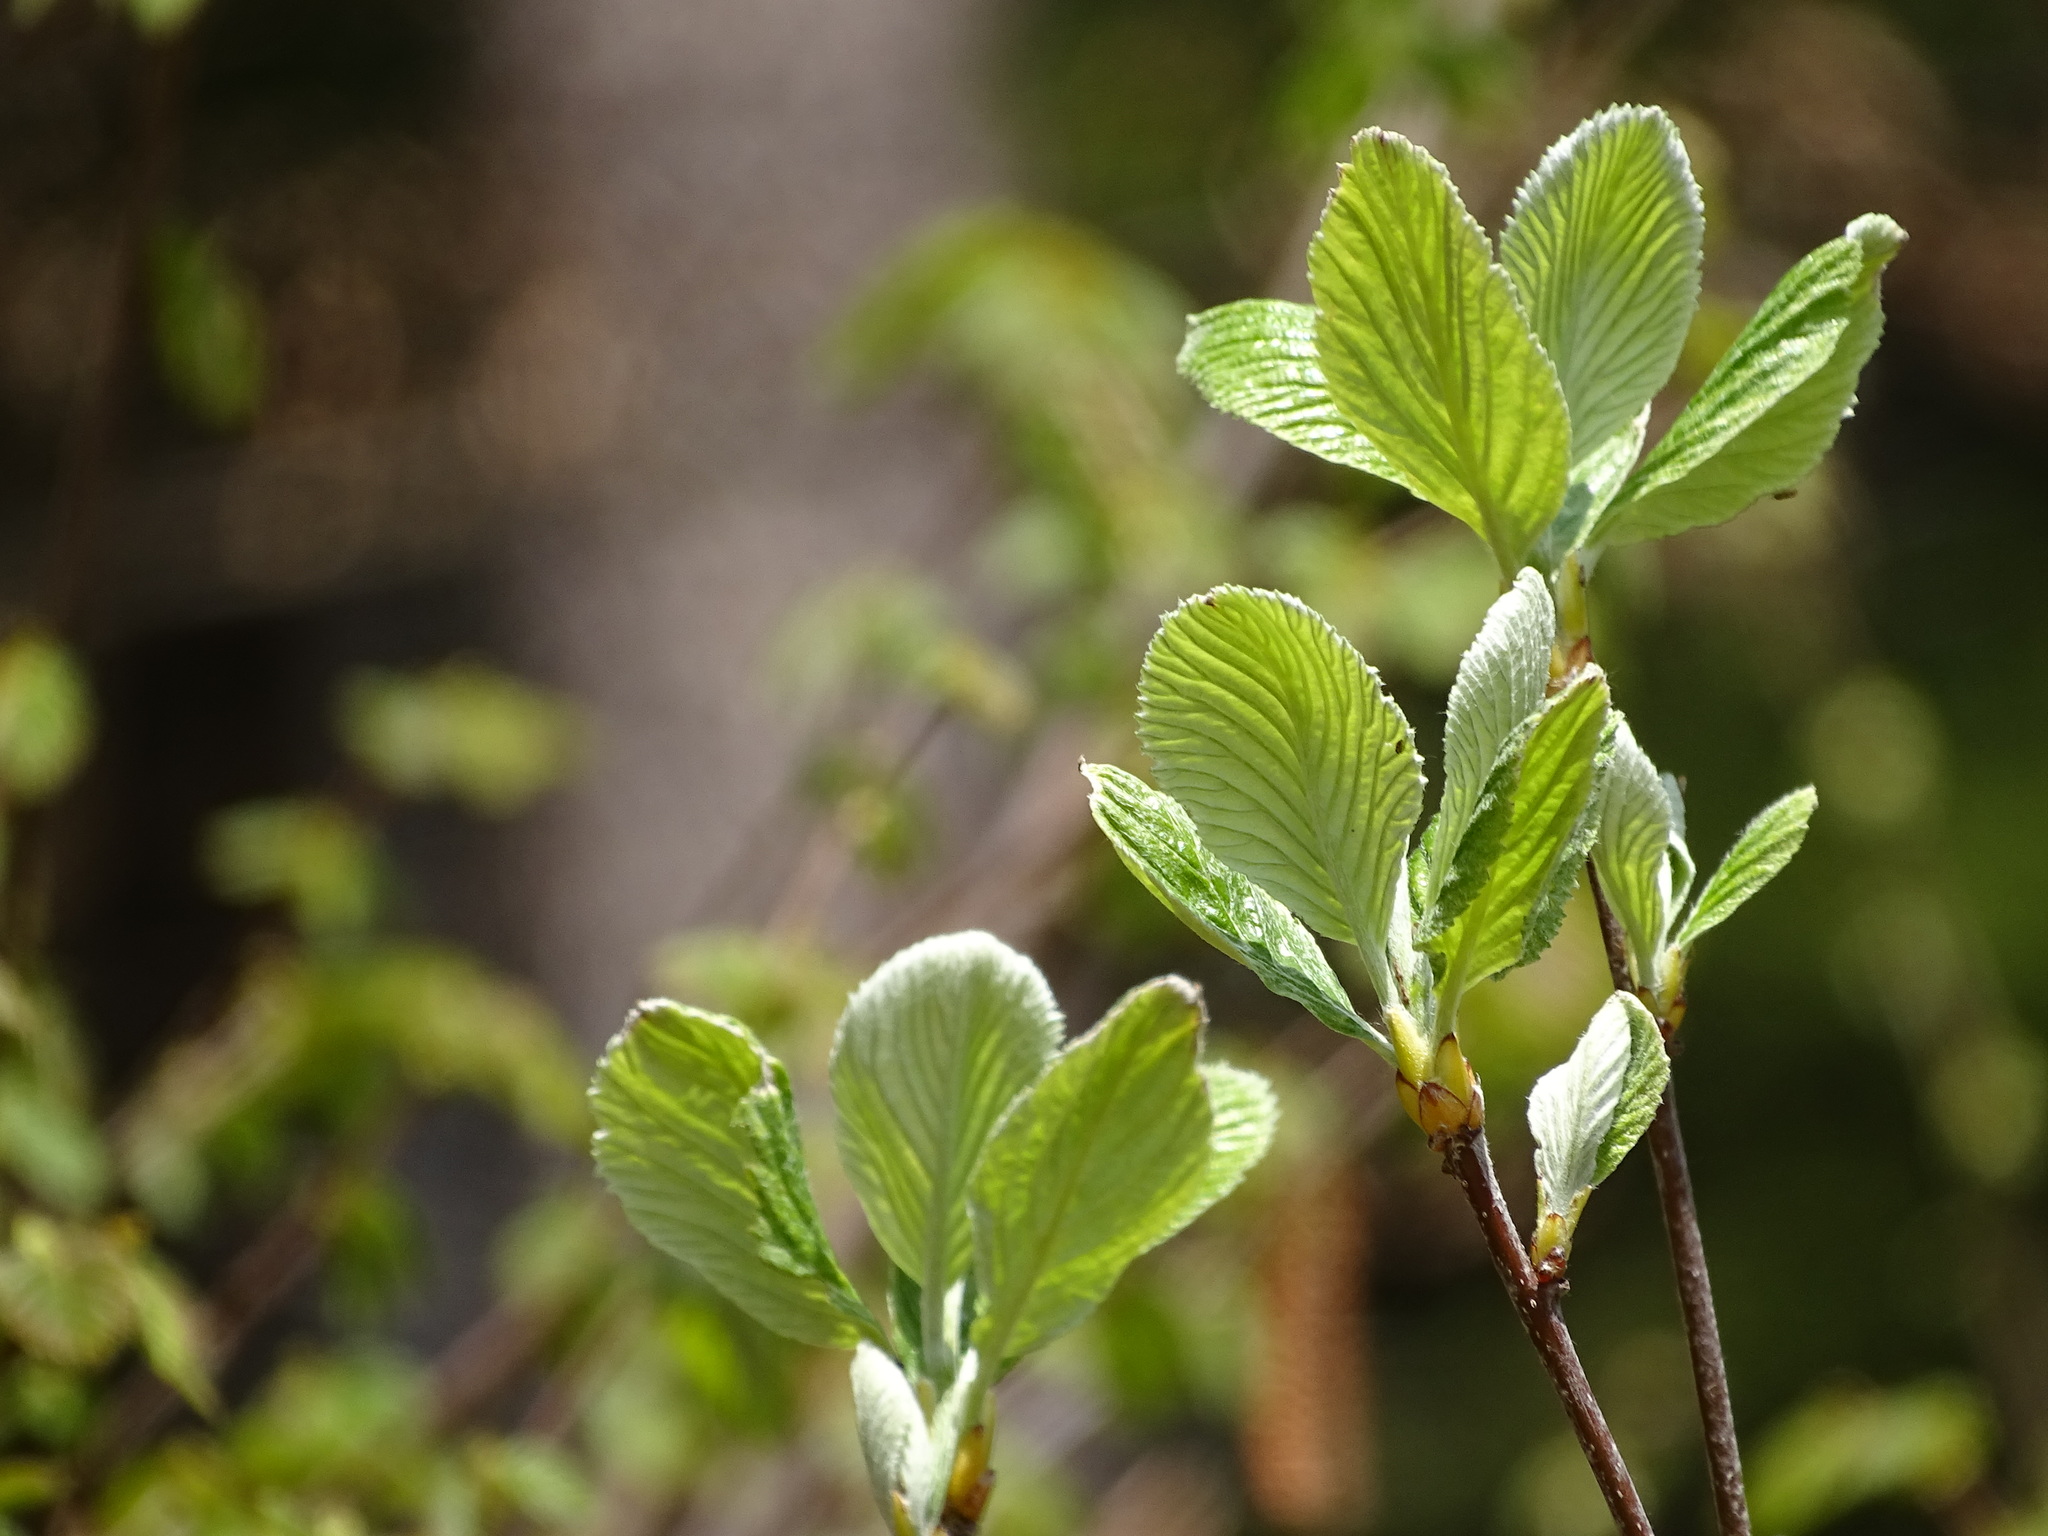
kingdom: Plantae
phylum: Tracheophyta
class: Magnoliopsida
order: Rosales
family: Rosaceae
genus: Aria
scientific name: Aria edulis
